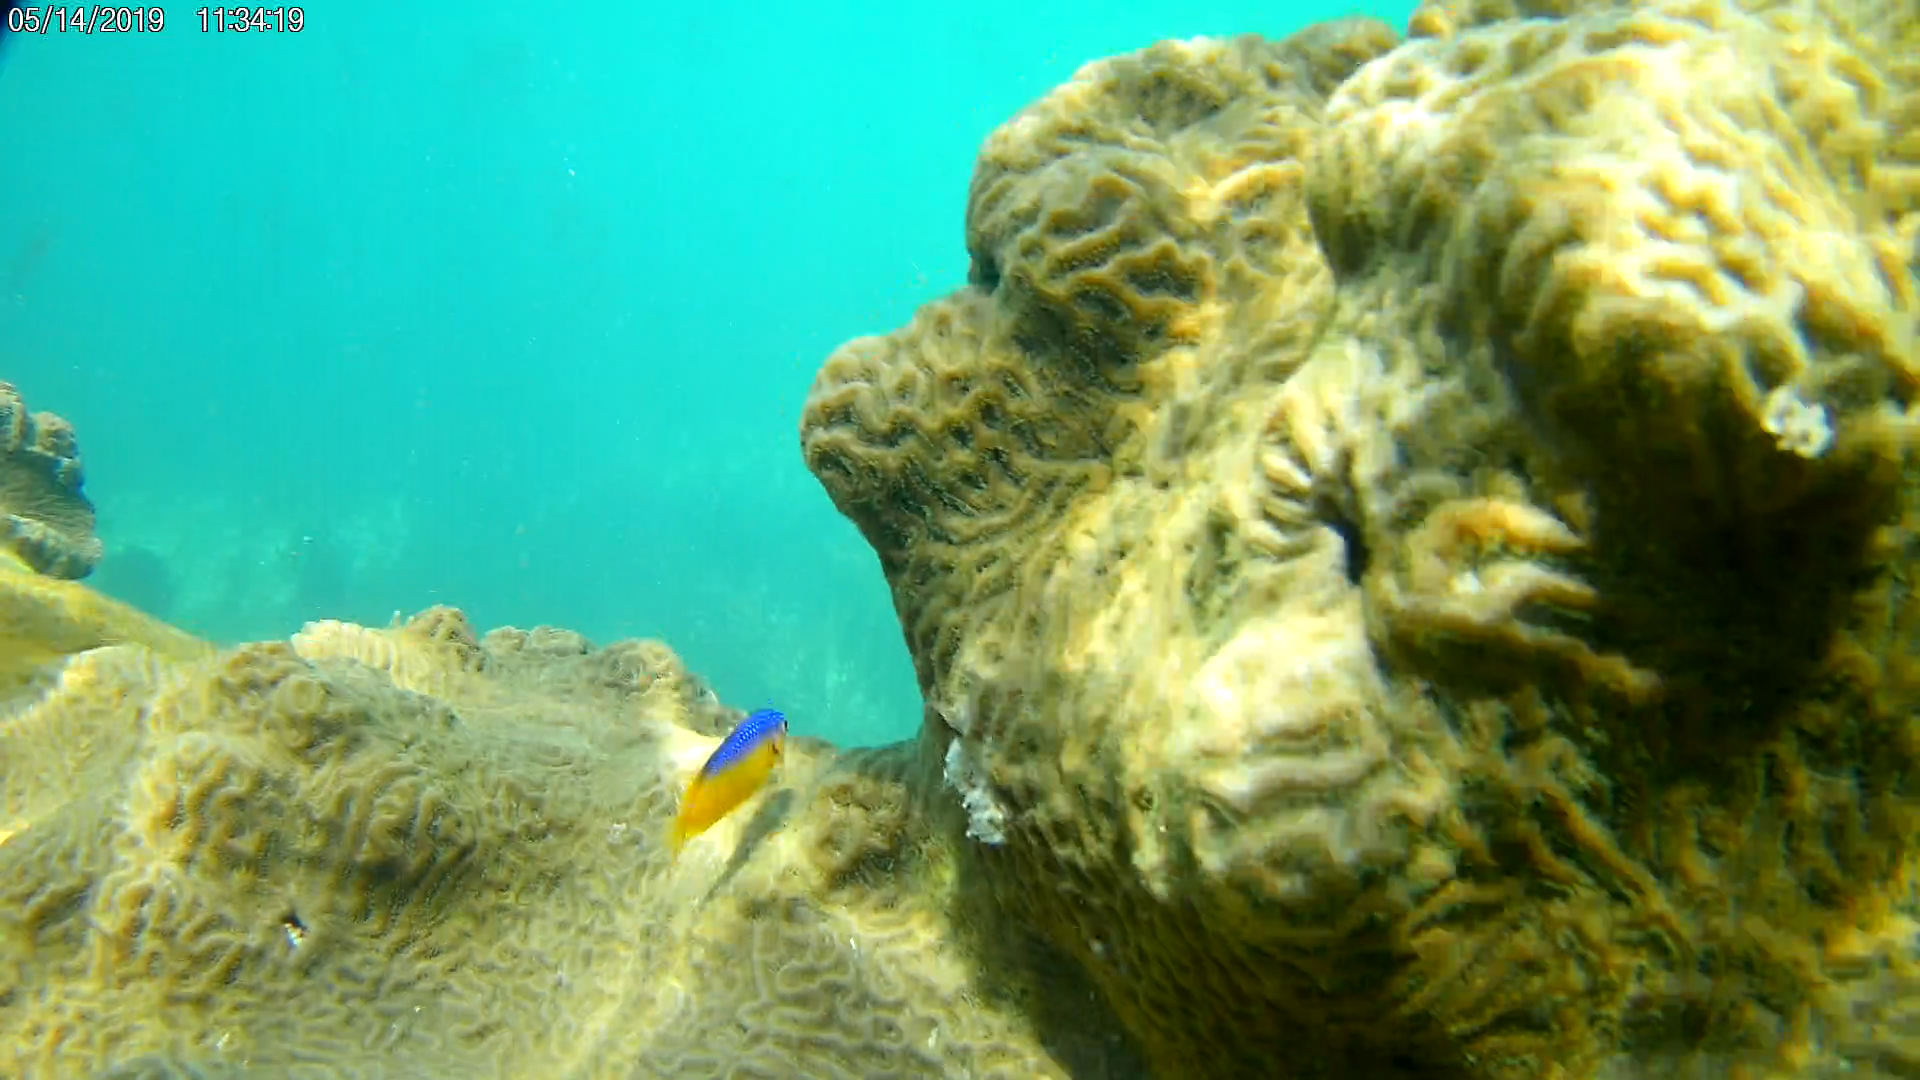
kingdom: Animalia
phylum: Chordata
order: Perciformes
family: Pomacentridae
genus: Stegastes
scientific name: Stegastes leucostictus
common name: Beaugregory
